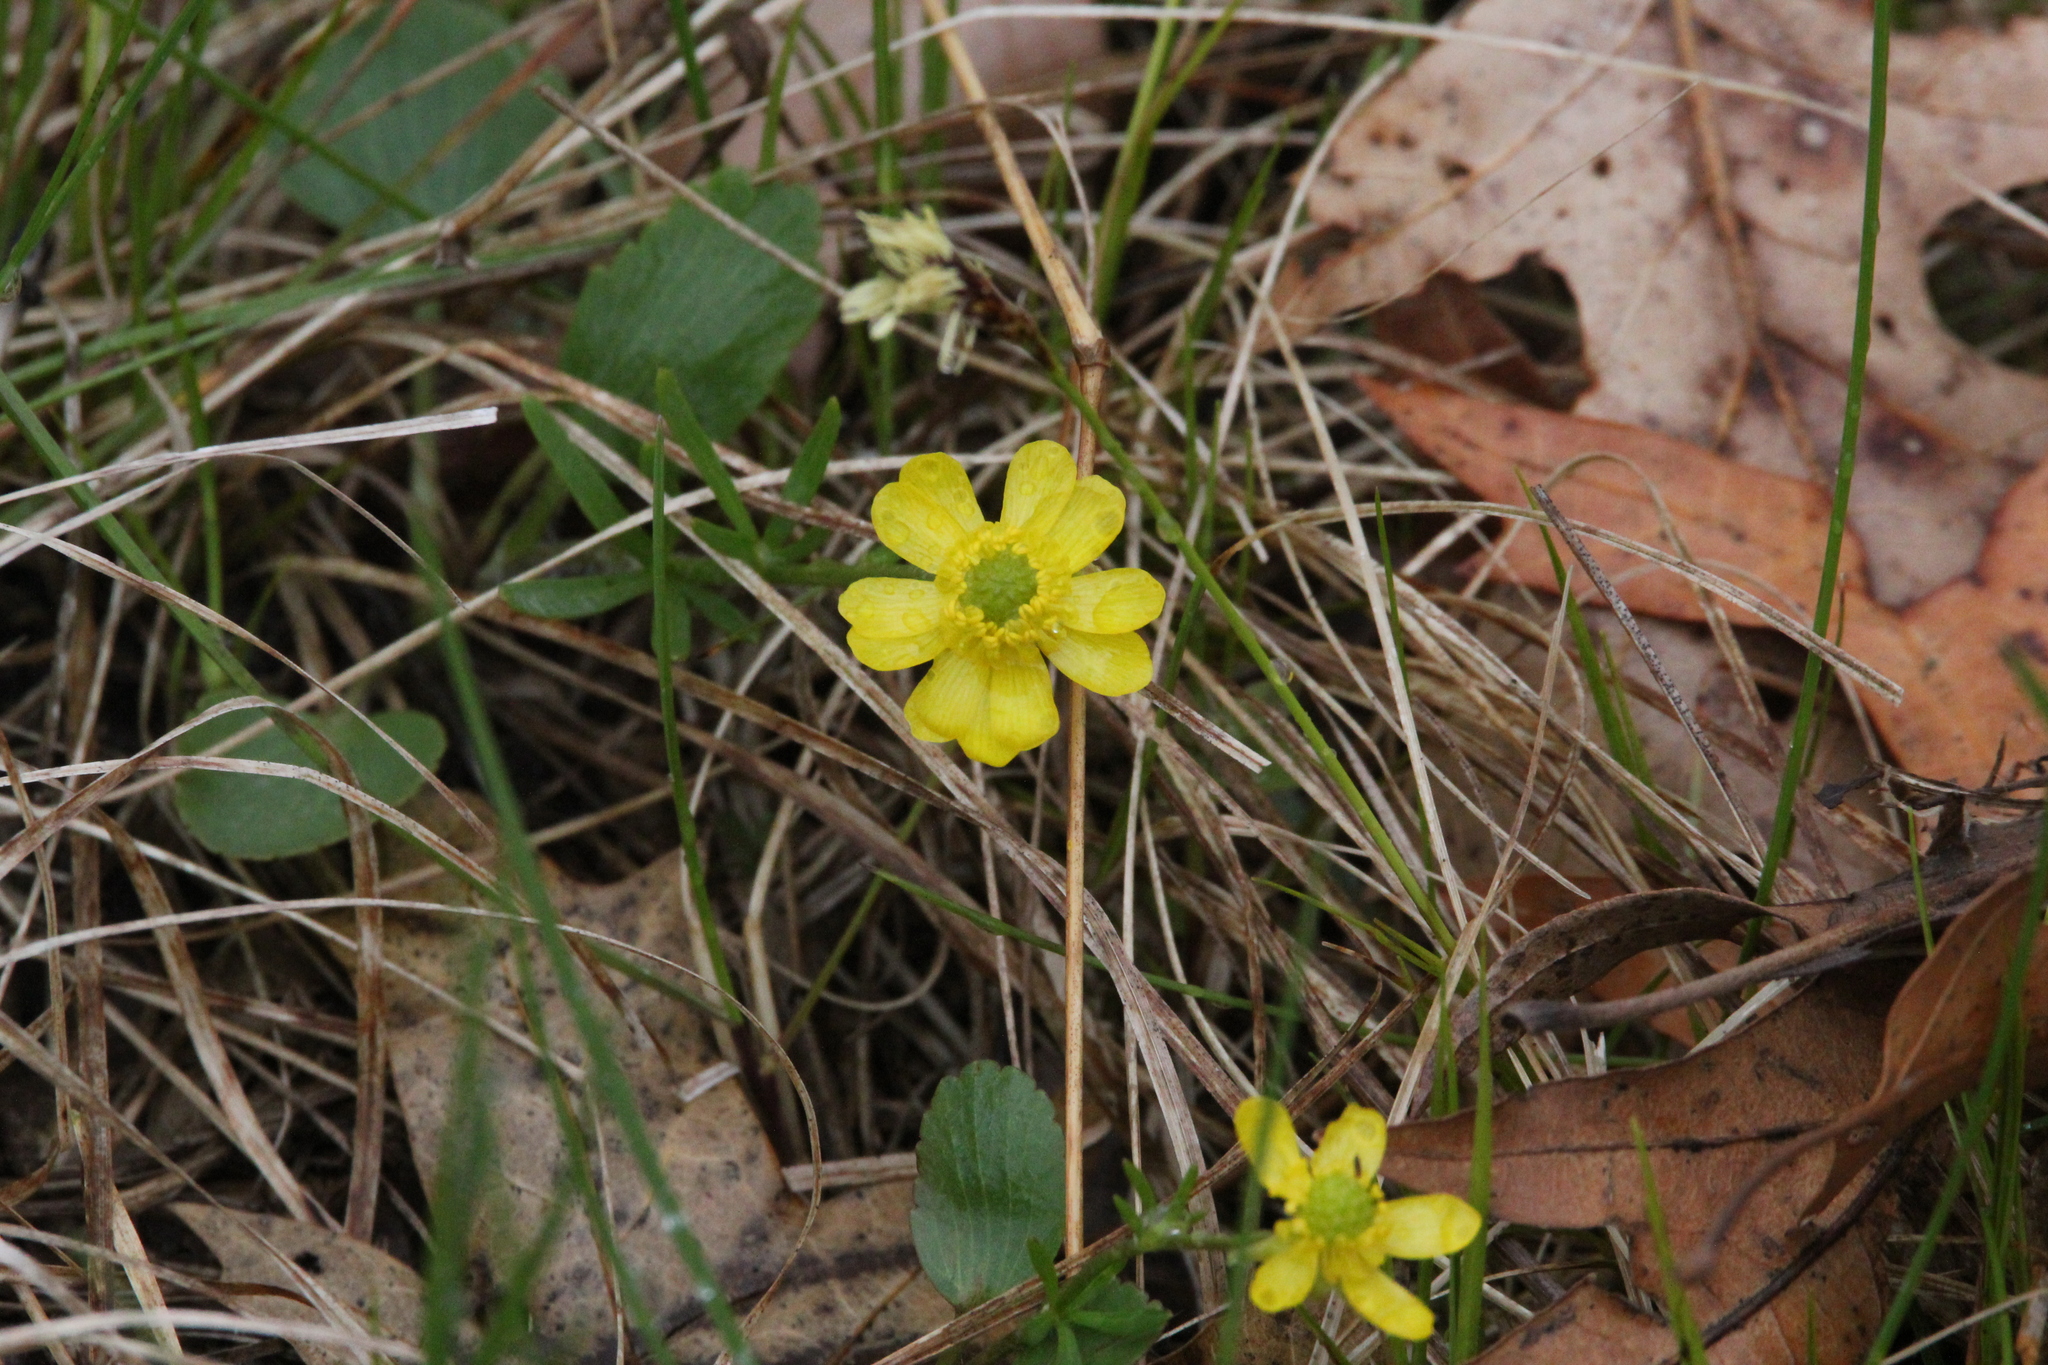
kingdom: Plantae
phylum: Tracheophyta
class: Magnoliopsida
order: Ranunculales
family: Ranunculaceae
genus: Ranunculus
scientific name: Ranunculus rhomboideus
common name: Prairie buttercup
